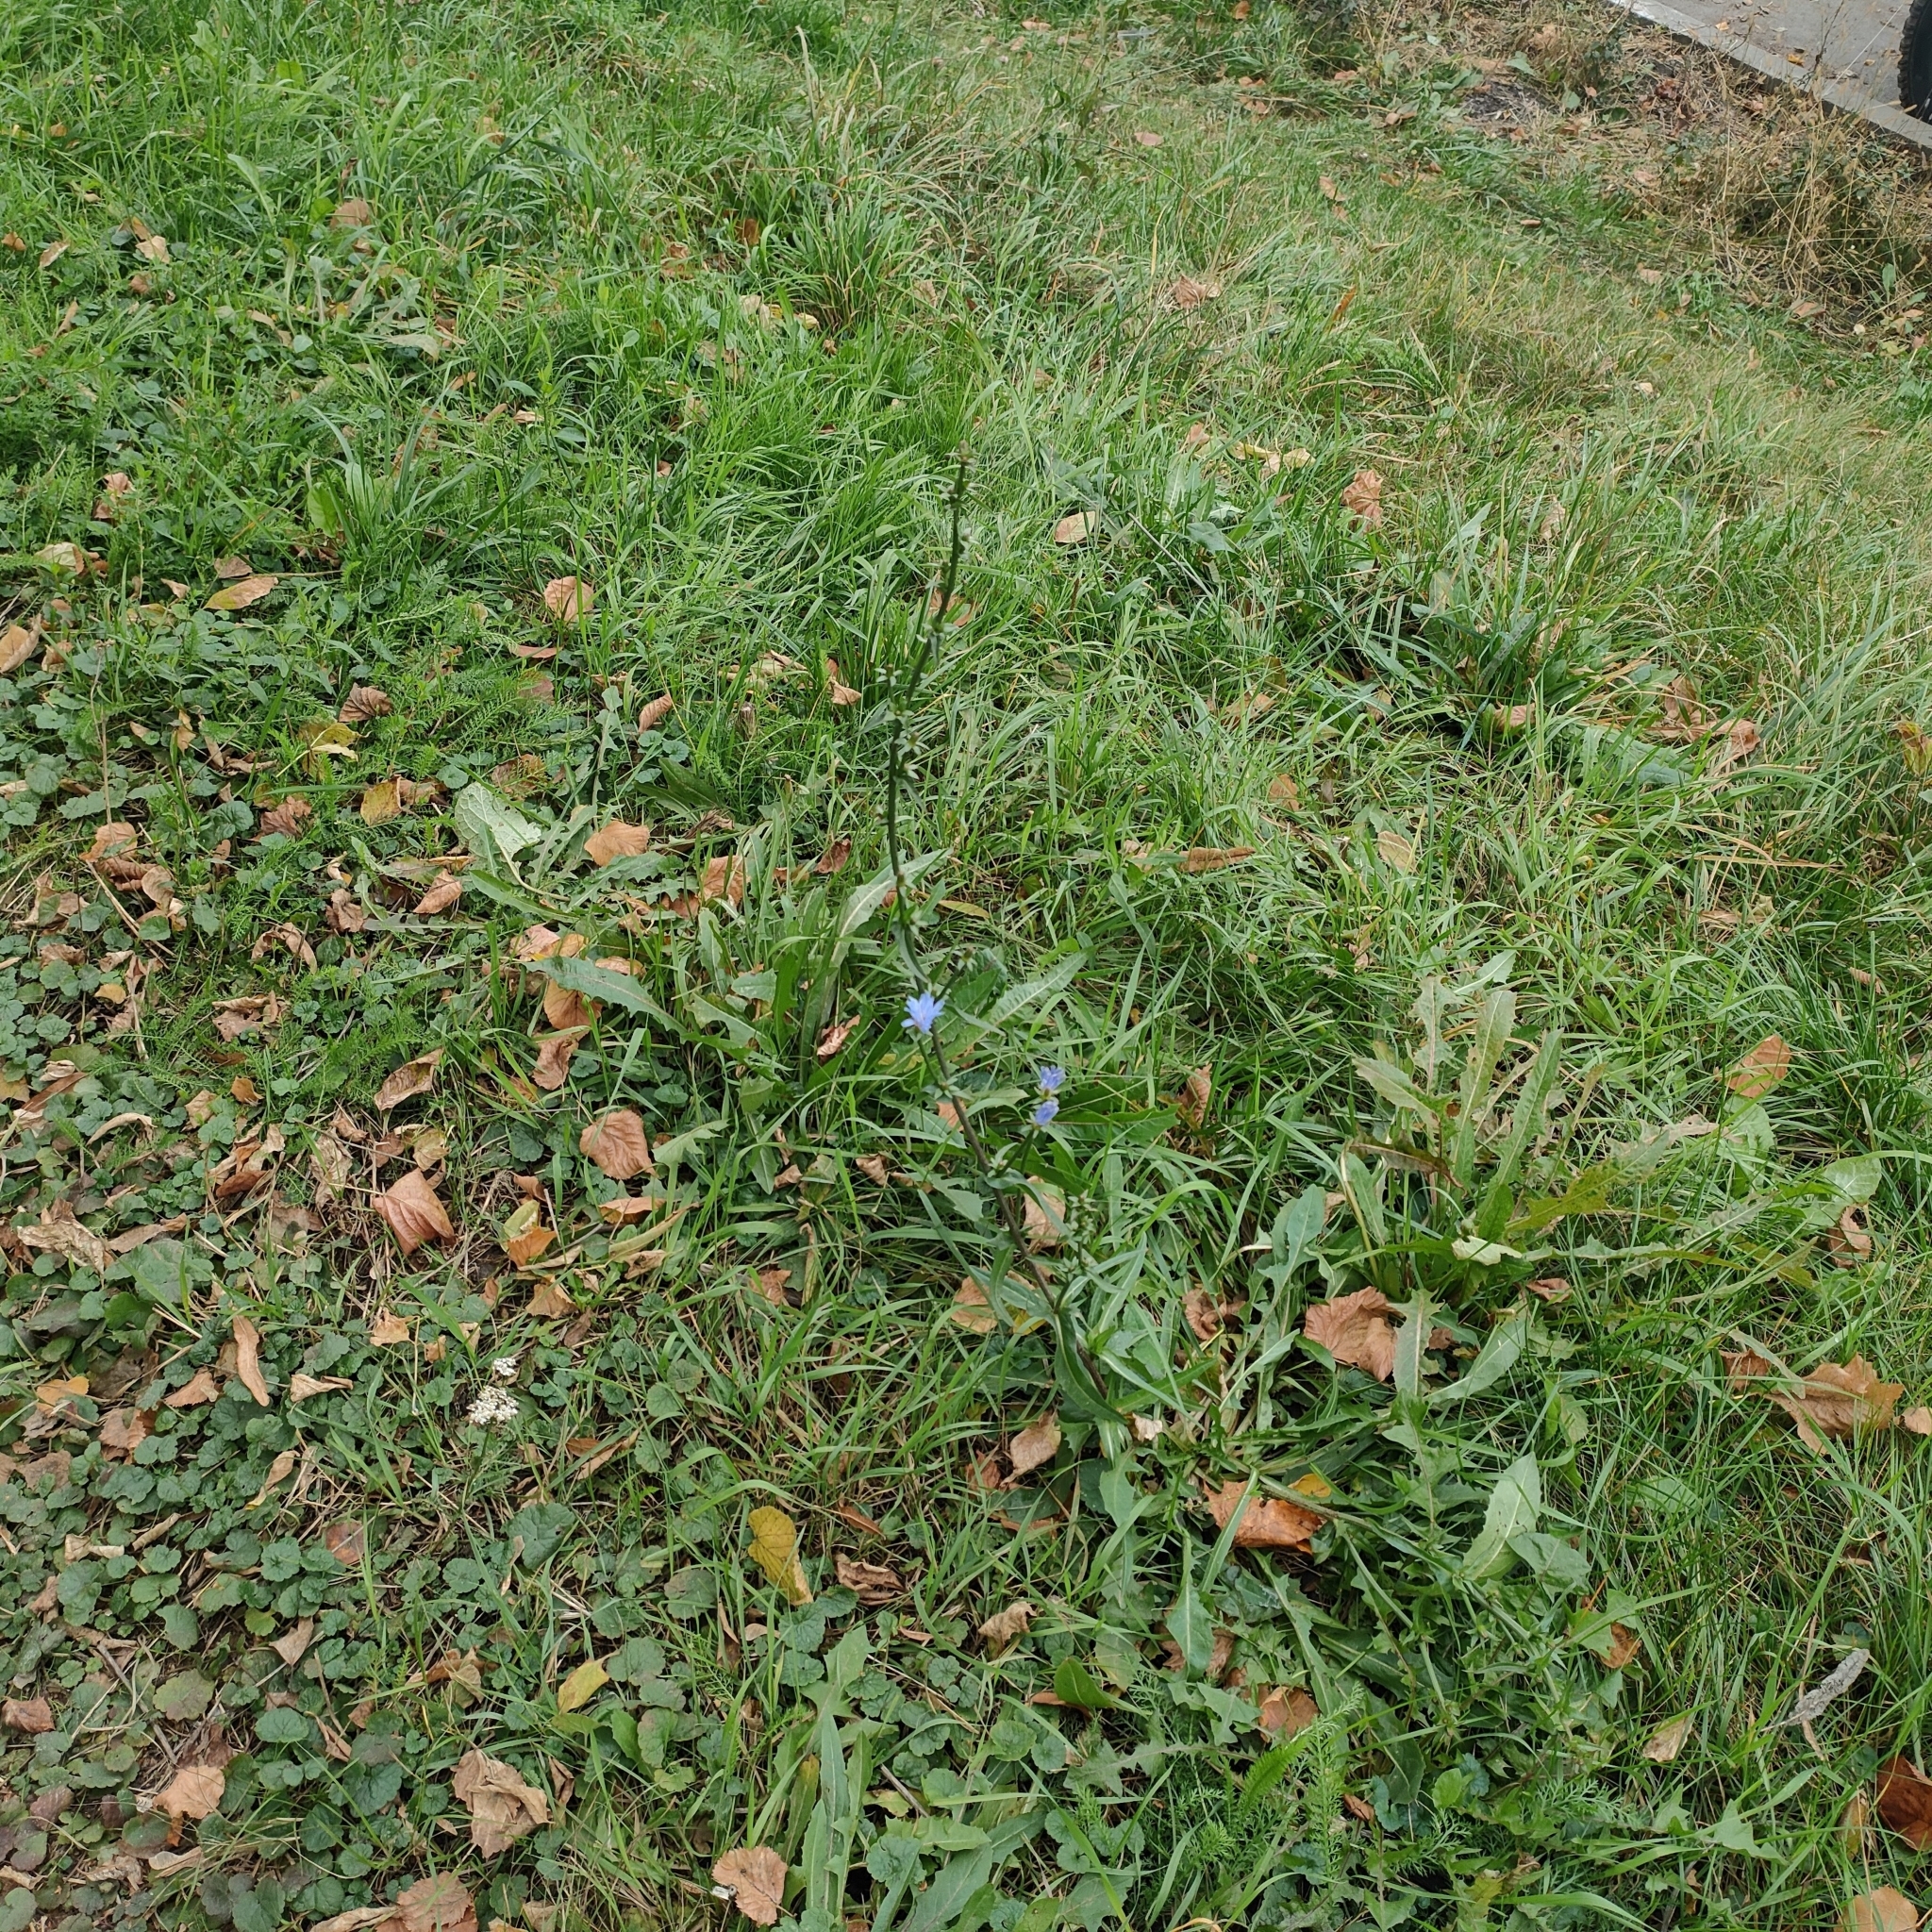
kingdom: Plantae
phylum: Tracheophyta
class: Magnoliopsida
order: Asterales
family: Asteraceae
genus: Cichorium
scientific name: Cichorium intybus
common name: Chicory
